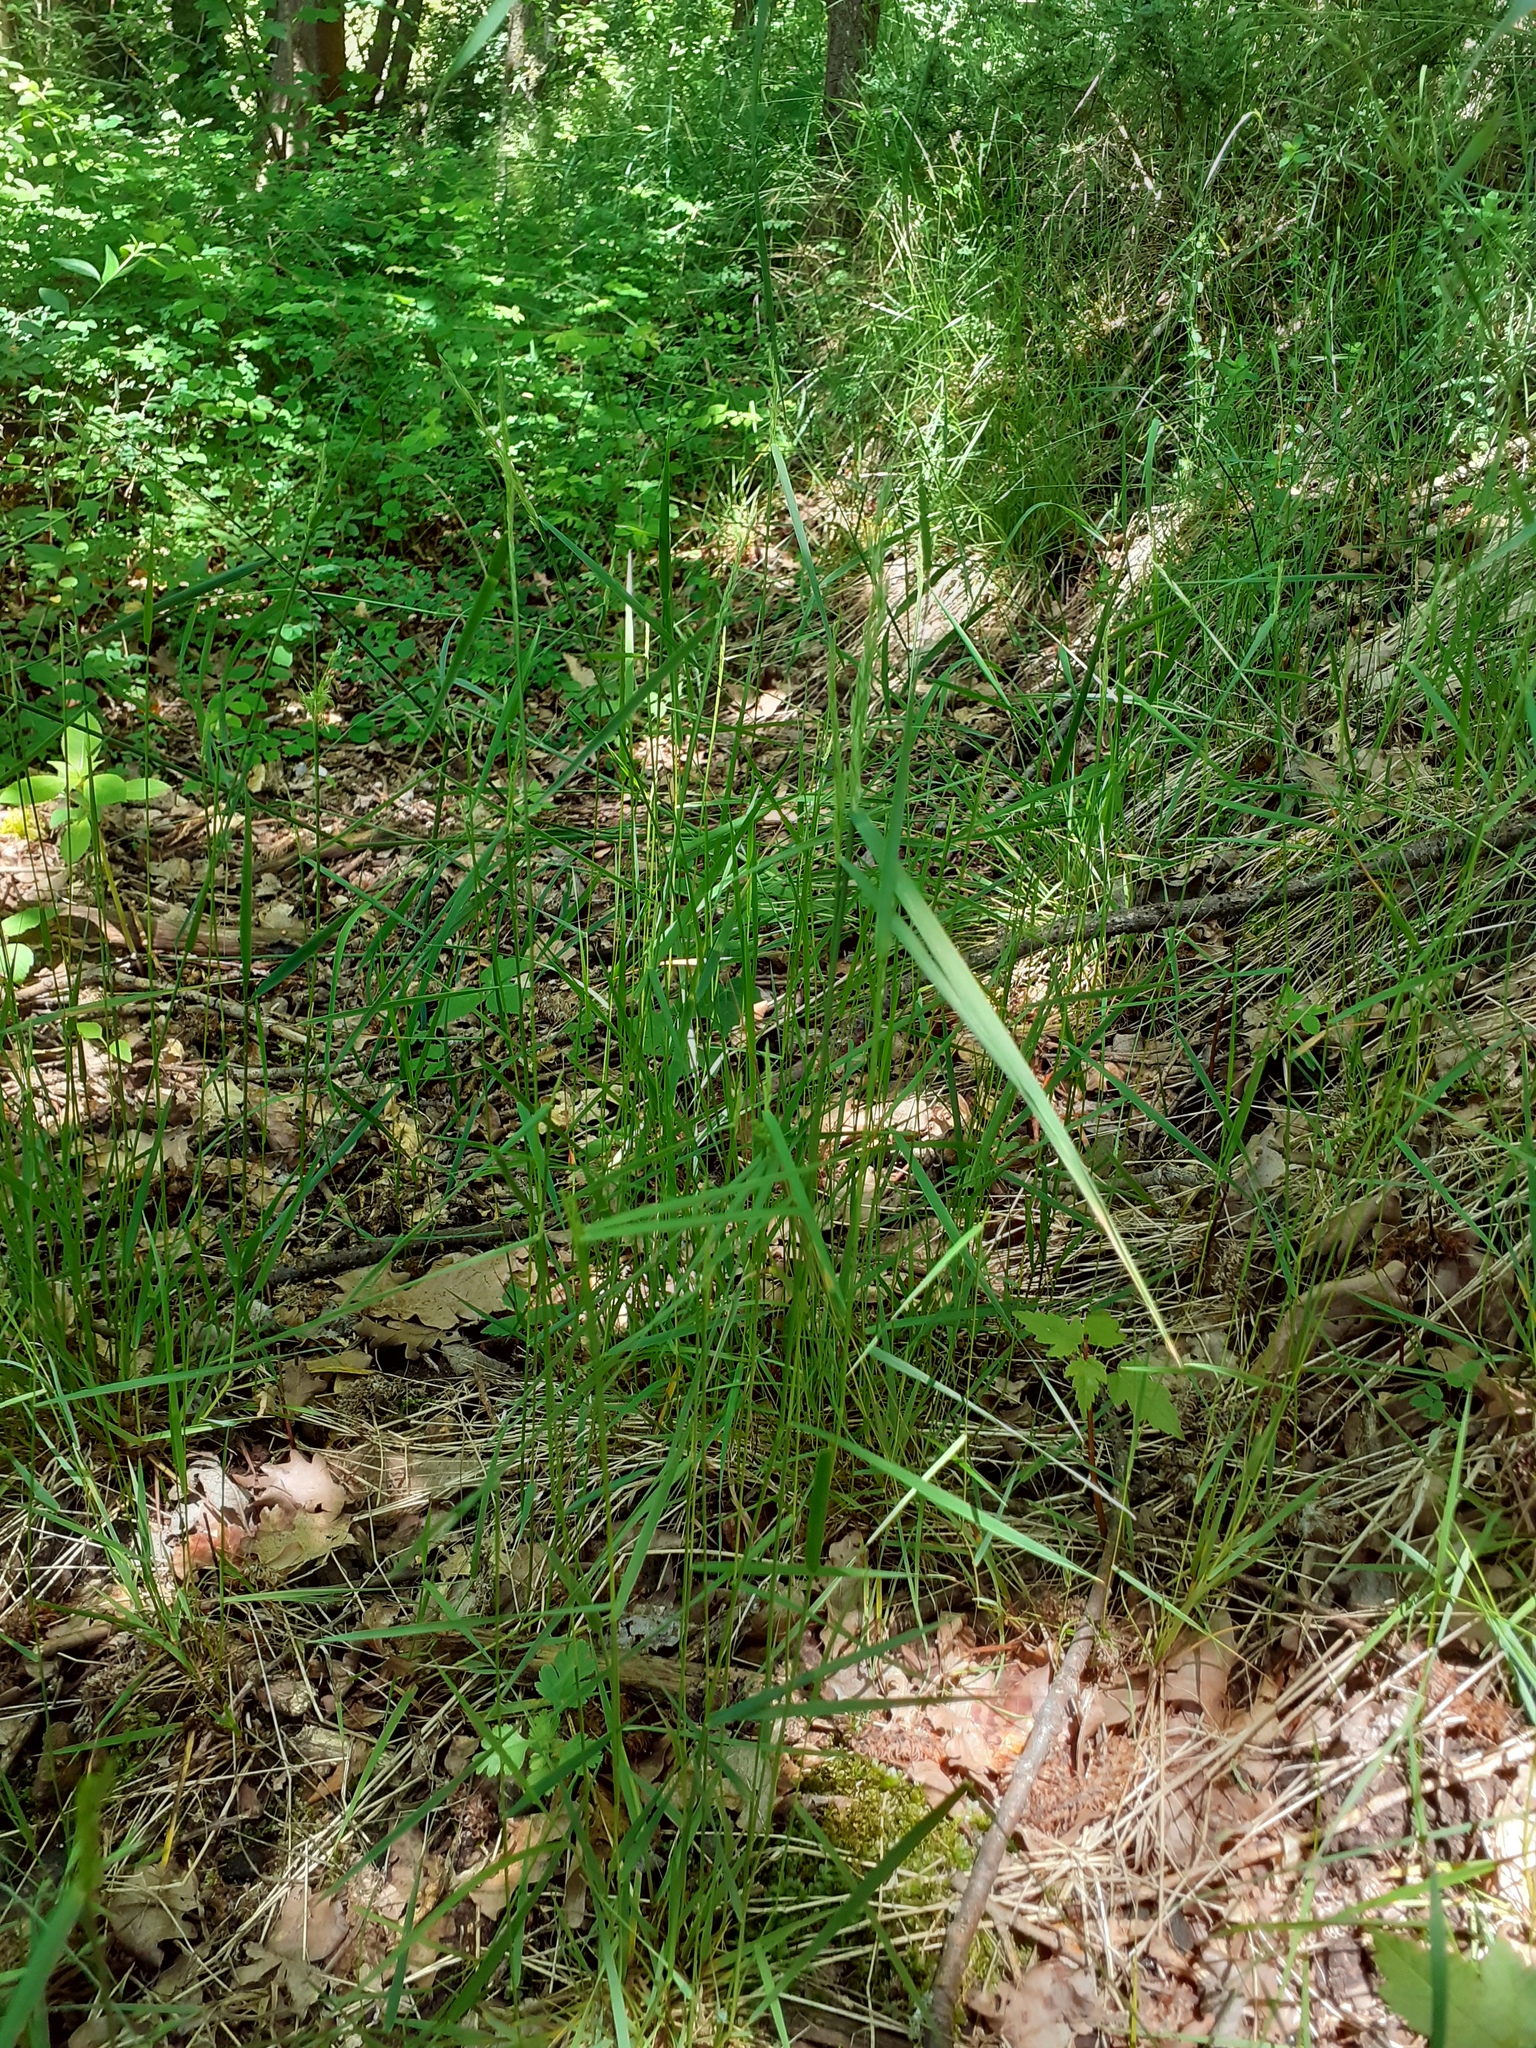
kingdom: Plantae
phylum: Tracheophyta
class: Liliopsida
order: Poales
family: Poaceae
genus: Poa
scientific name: Poa nemoralis
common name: Wood bluegrass
